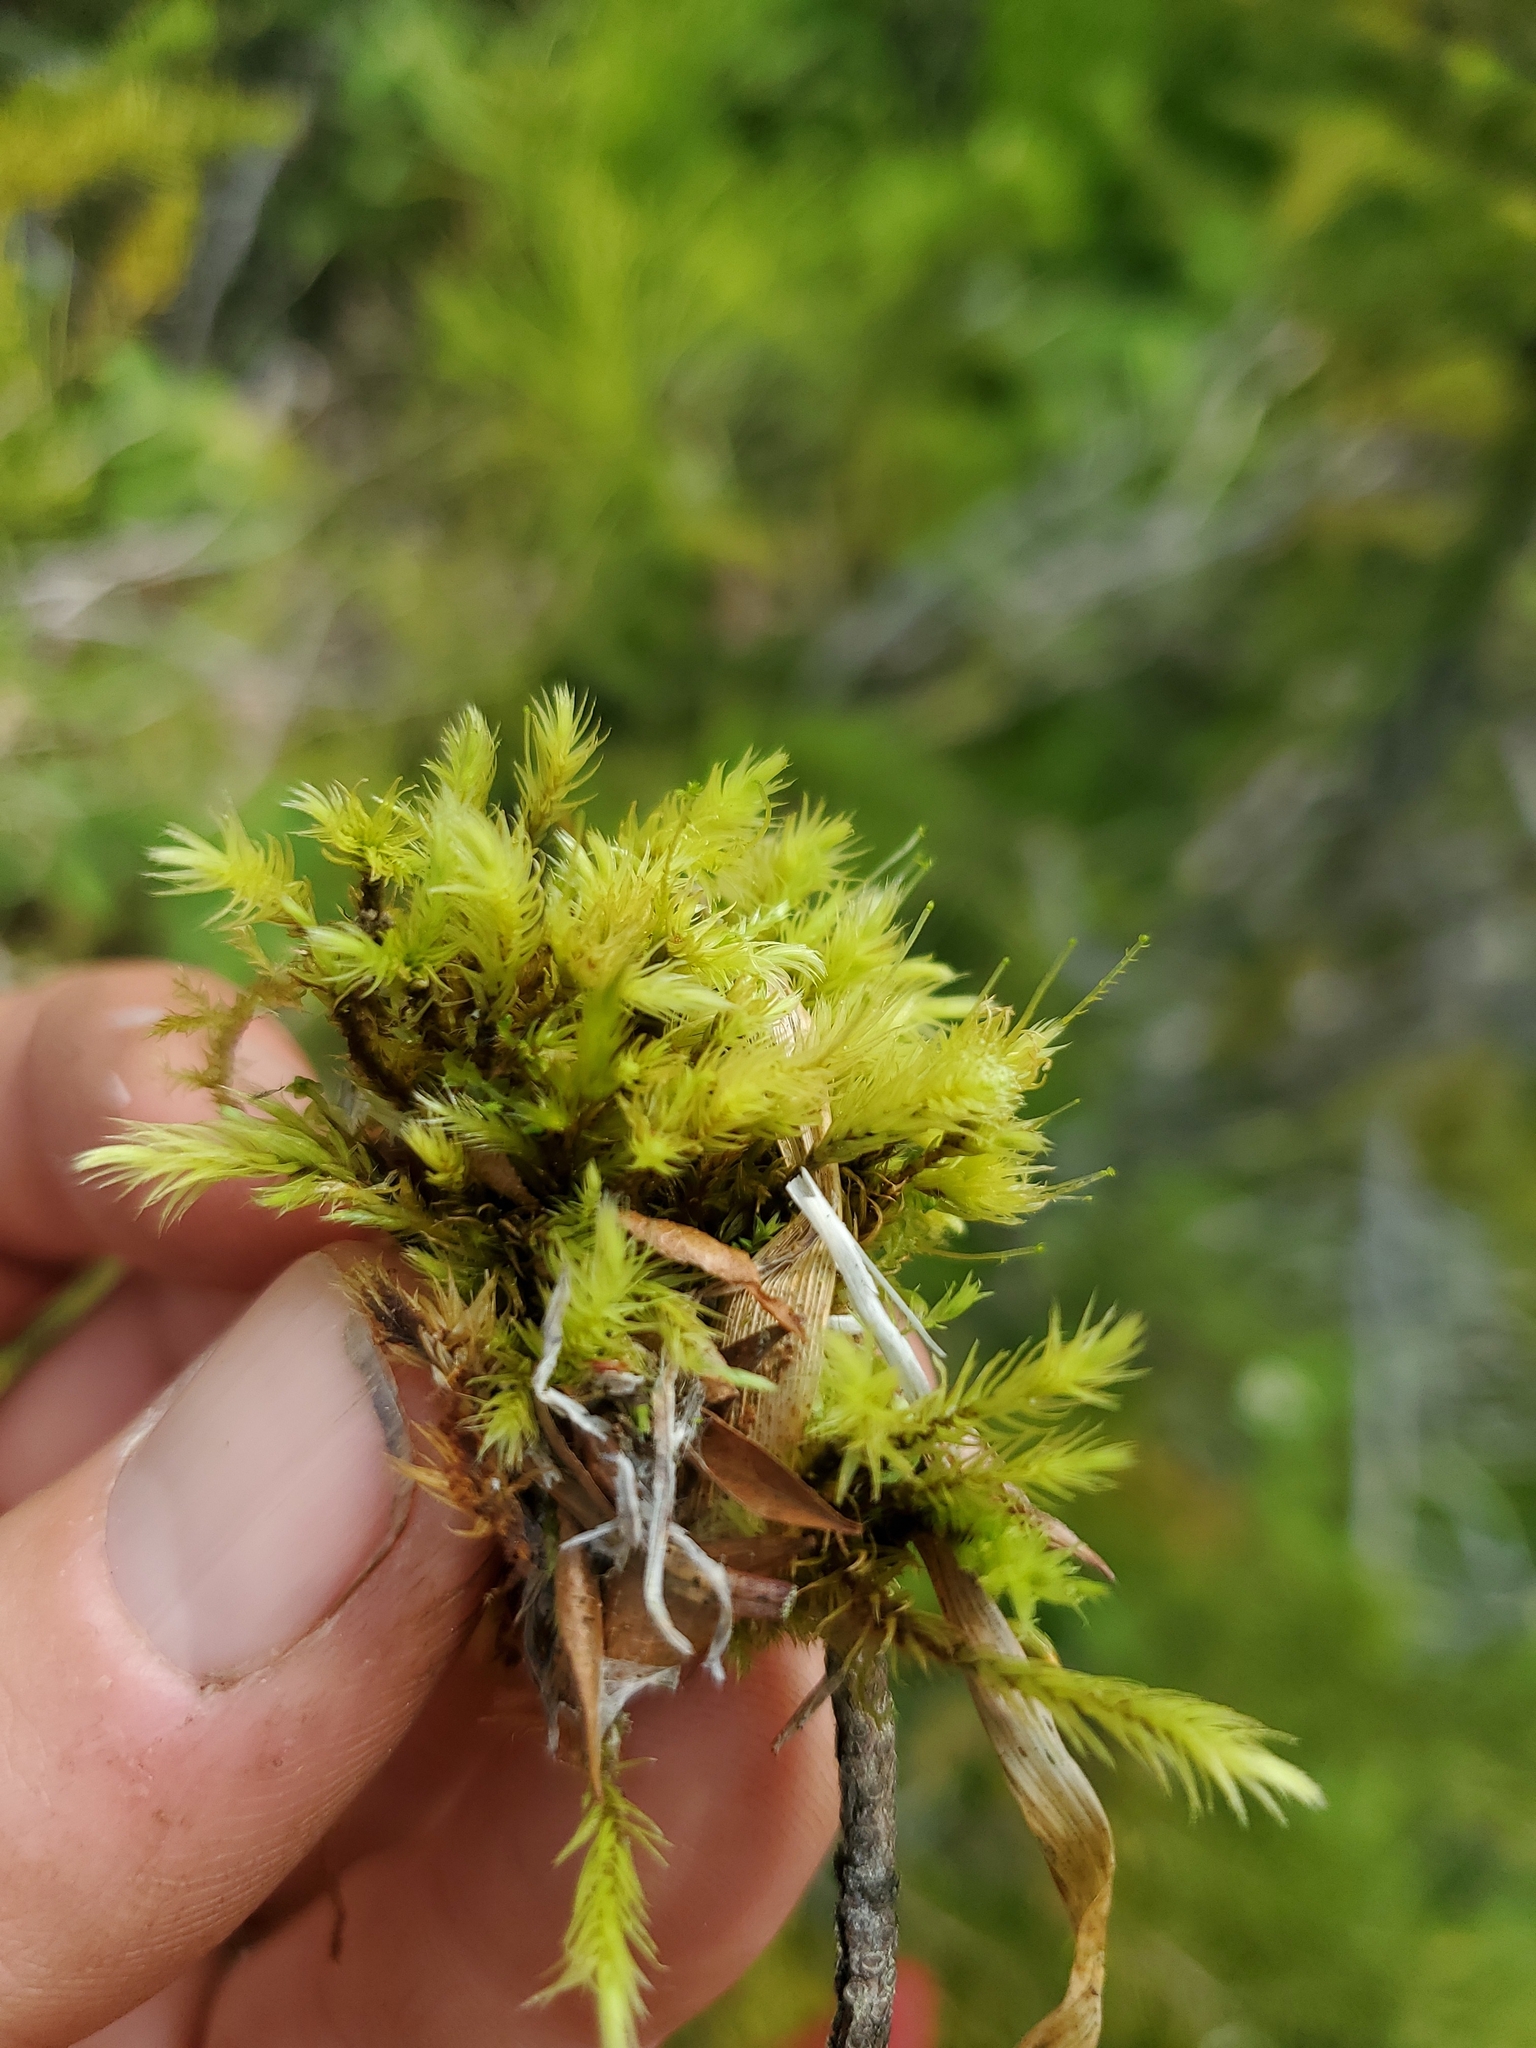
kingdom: Plantae
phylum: Bryophyta
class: Bryopsida
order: Aulacomniales
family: Aulacomniaceae
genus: Aulacomnium
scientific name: Aulacomnium palustre
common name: Bog groove-moss
